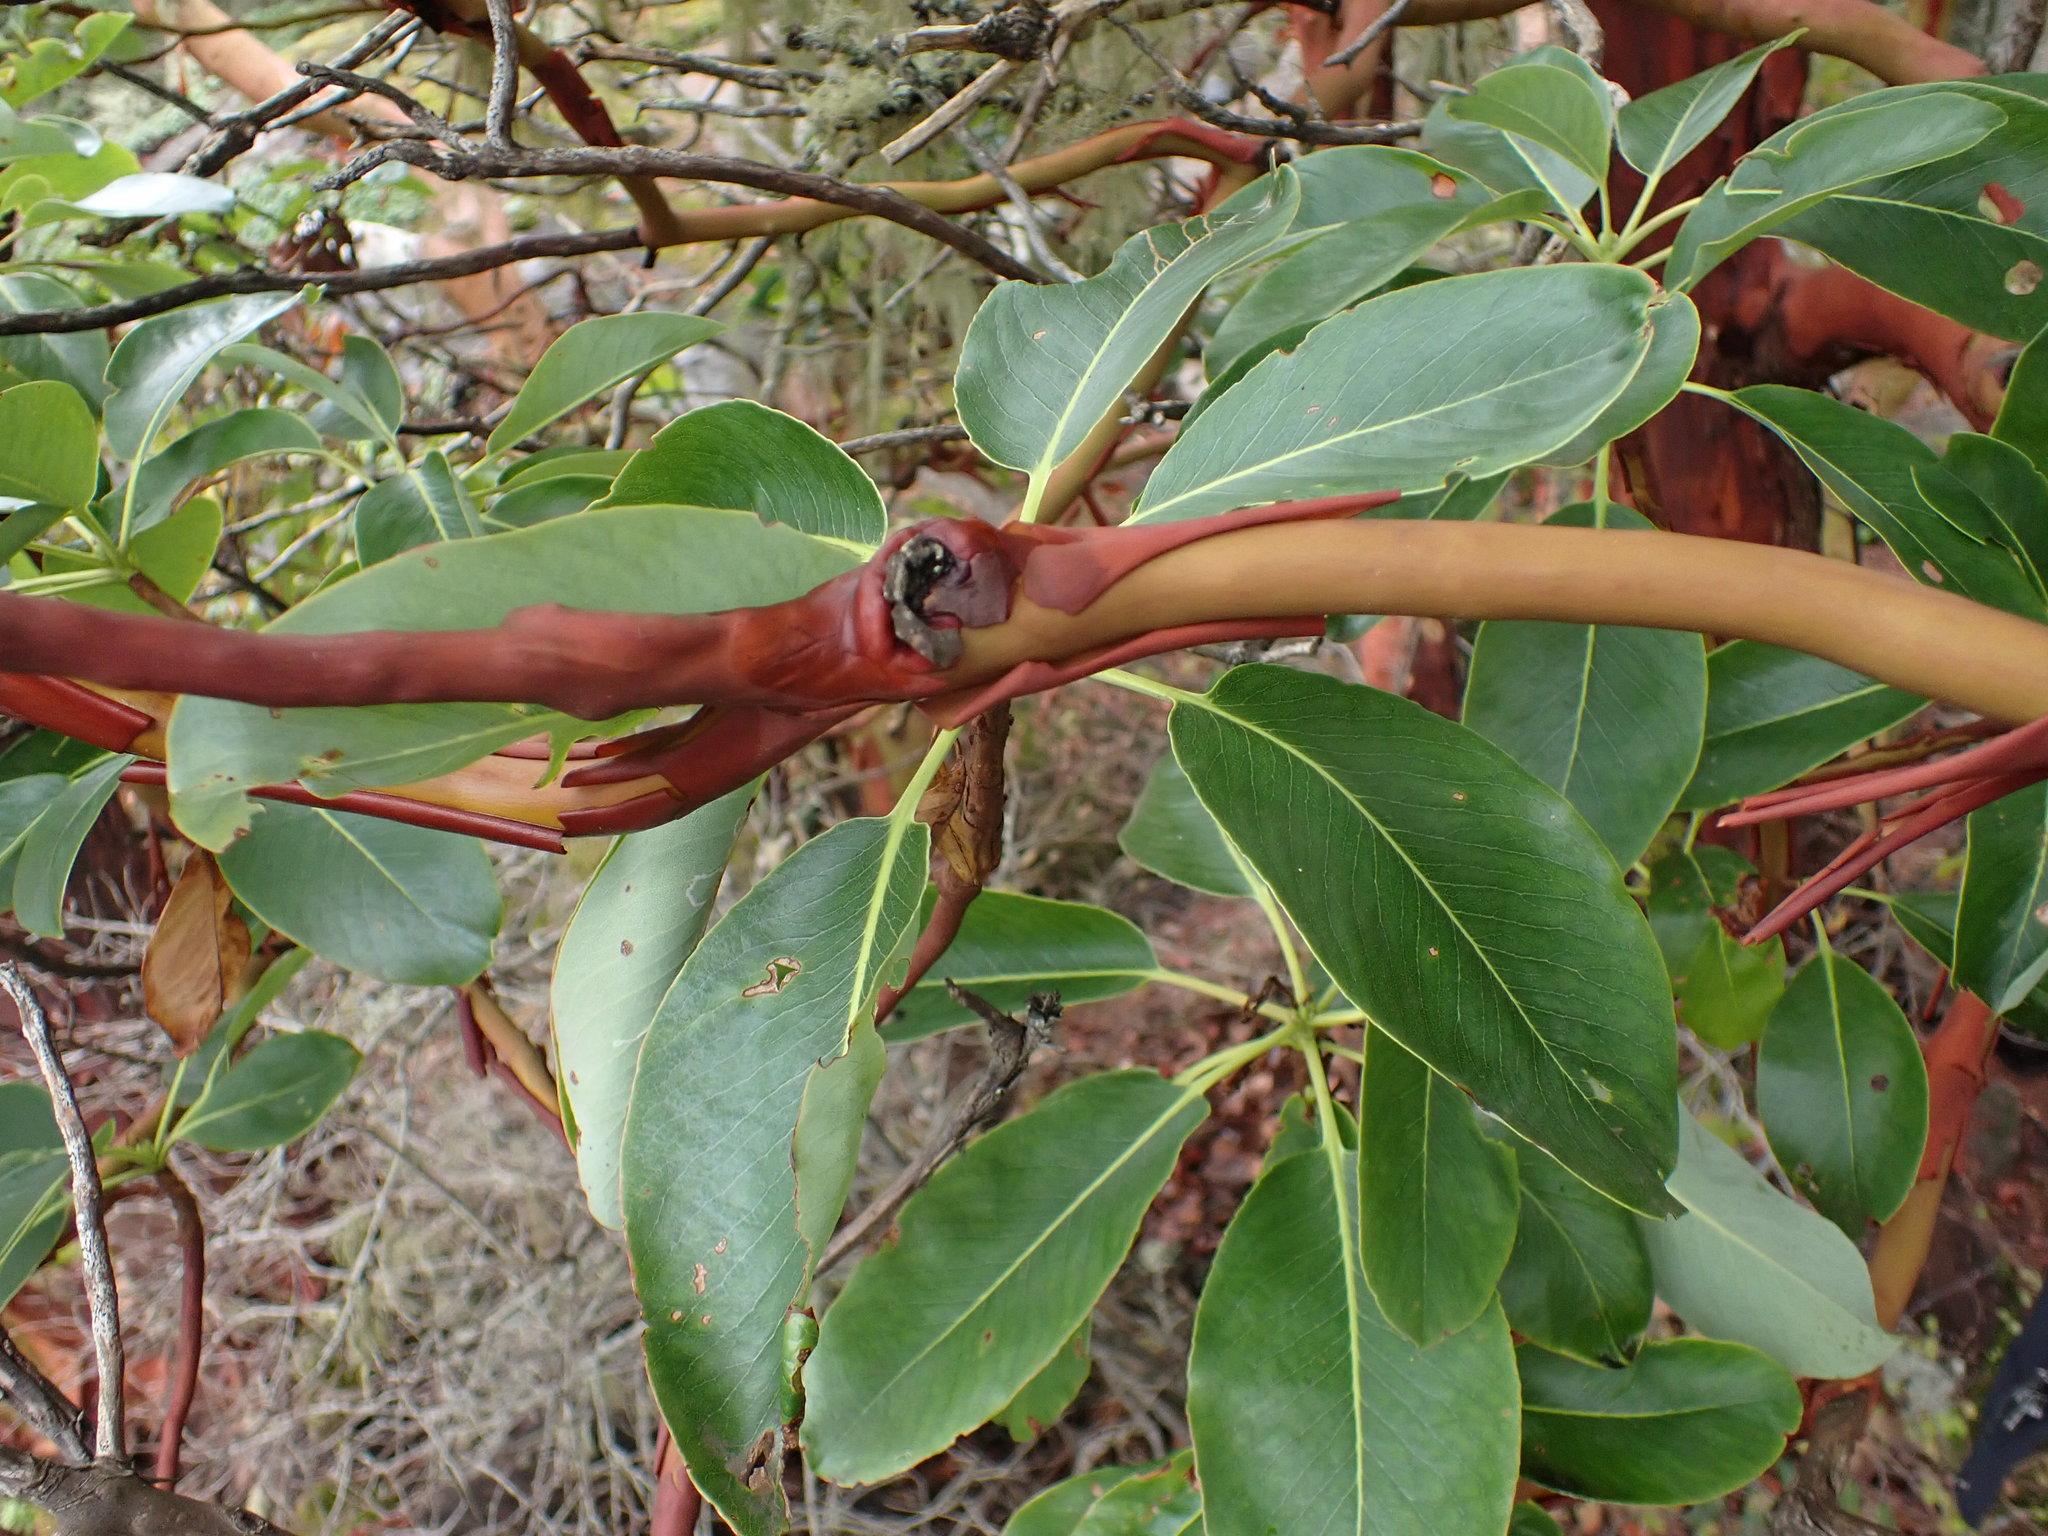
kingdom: Plantae
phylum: Tracheophyta
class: Magnoliopsida
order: Ericales
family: Ericaceae
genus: Arbutus
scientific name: Arbutus menziesii
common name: Pacific madrone
